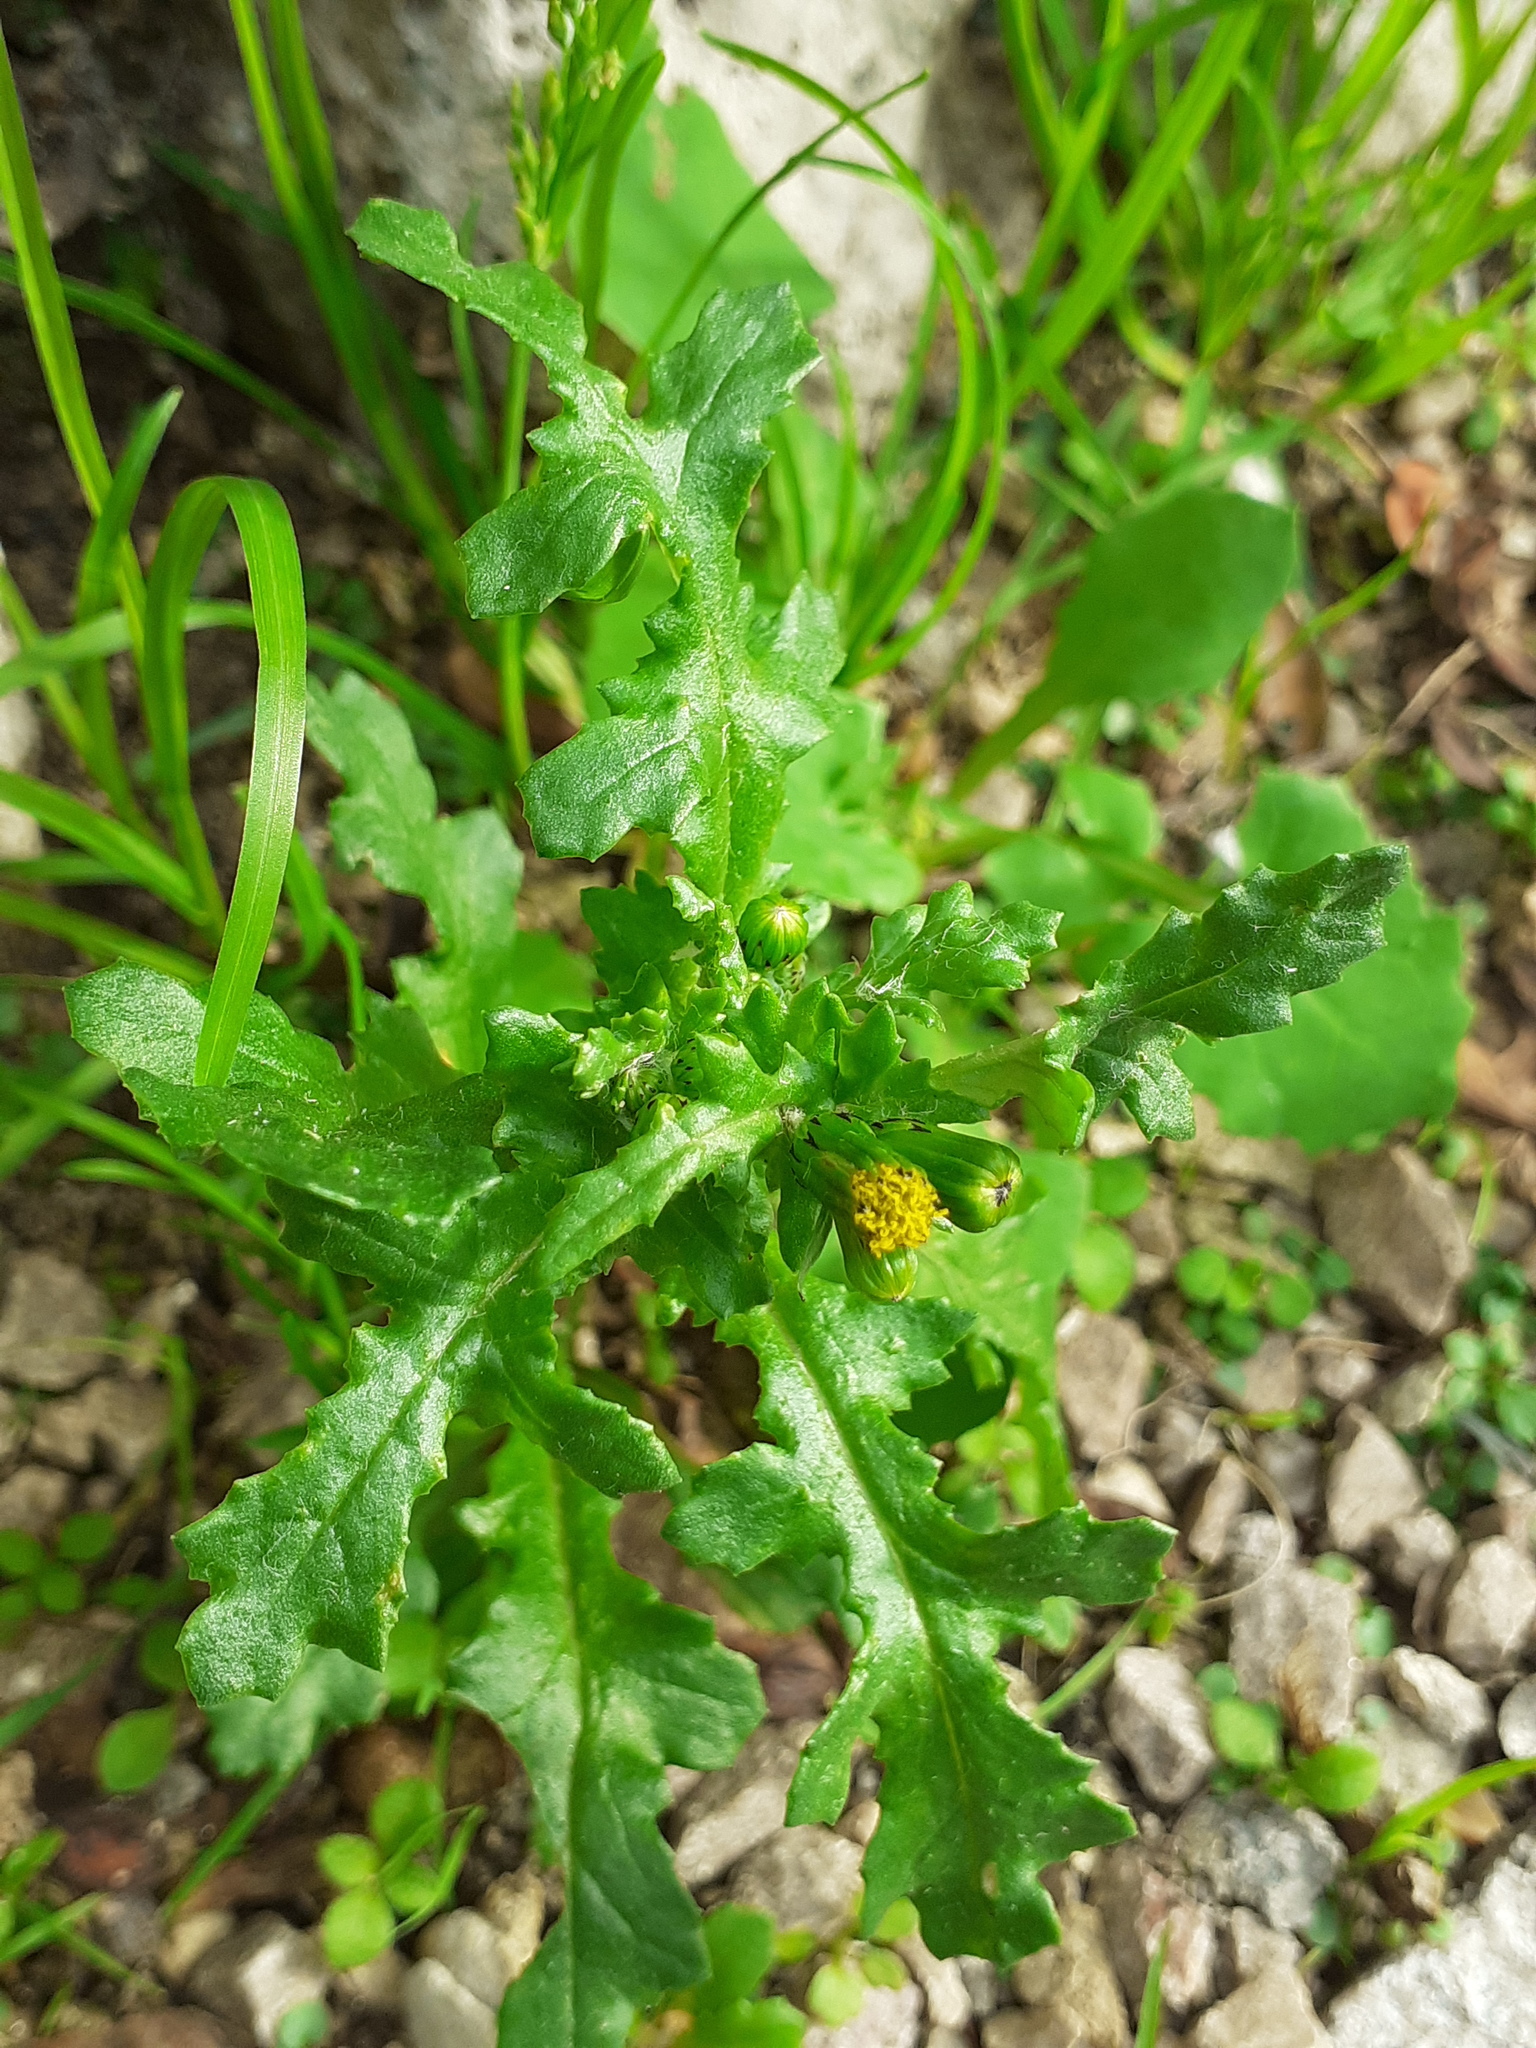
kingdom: Plantae
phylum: Tracheophyta
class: Magnoliopsida
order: Asterales
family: Asteraceae
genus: Senecio
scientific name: Senecio vulgaris
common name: Old-man-in-the-spring
